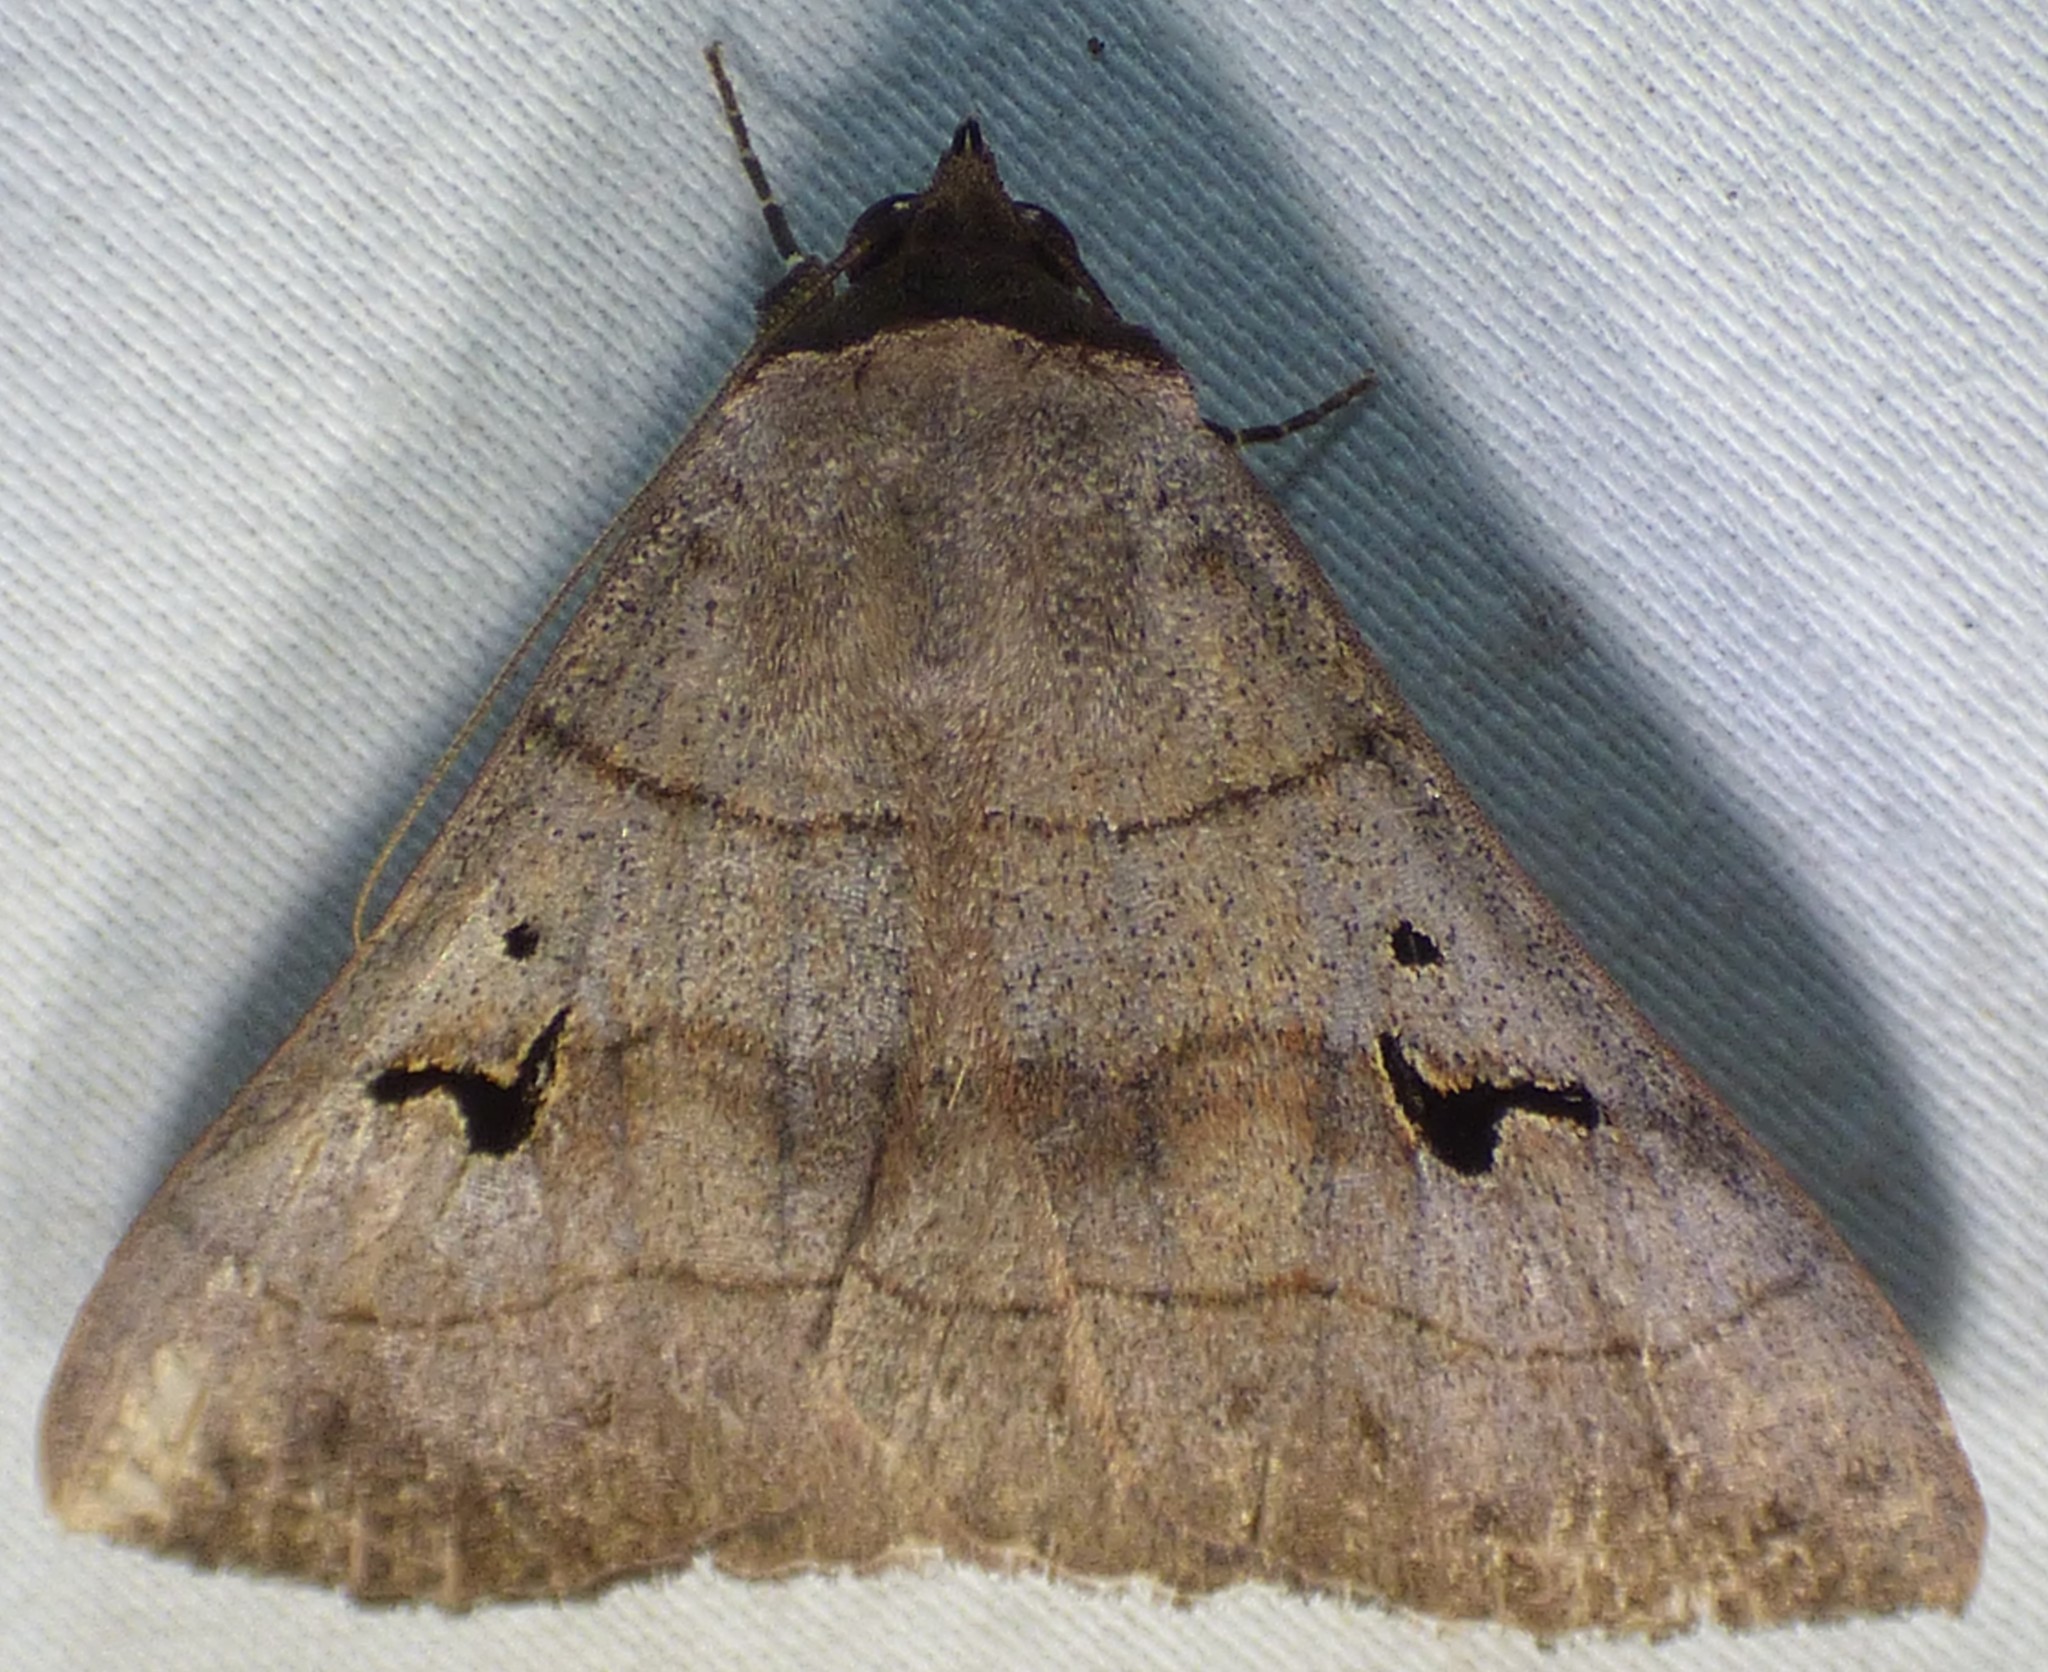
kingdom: Animalia
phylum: Arthropoda
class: Insecta
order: Lepidoptera
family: Erebidae
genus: Panopoda
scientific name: Panopoda carneicosta
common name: Brown panopoda moth
